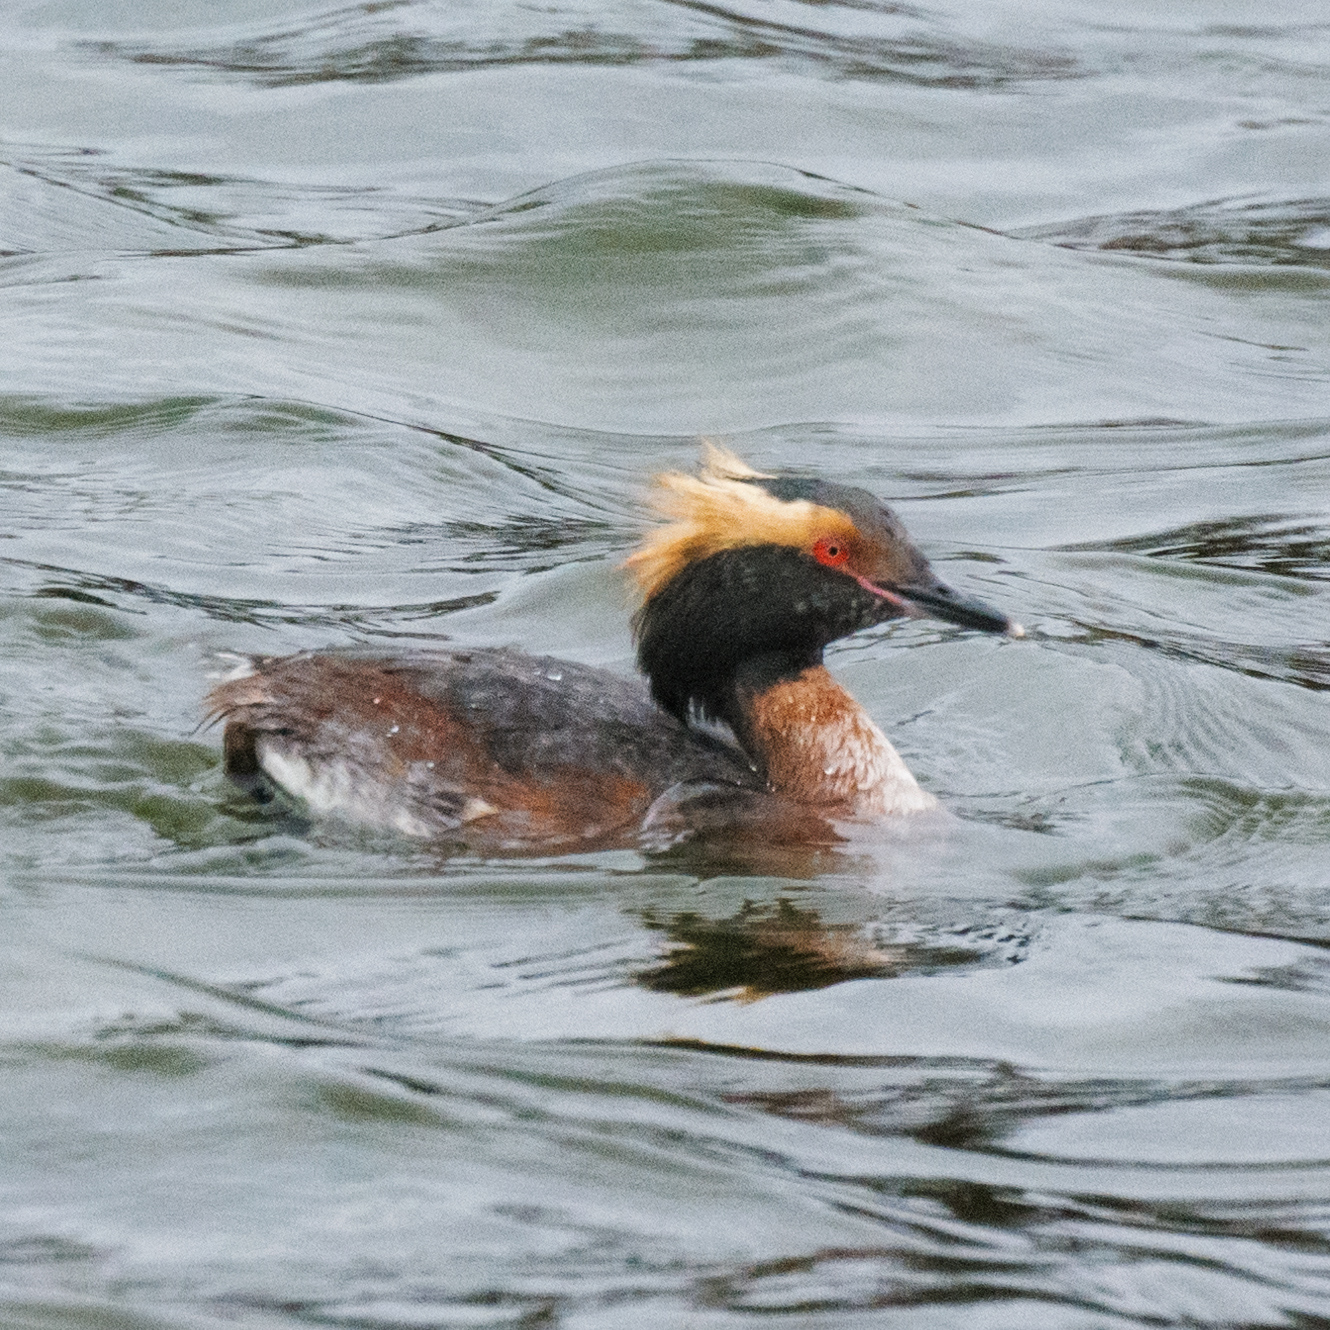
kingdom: Animalia
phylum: Chordata
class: Aves
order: Podicipediformes
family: Podicipedidae
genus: Podiceps
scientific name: Podiceps auritus
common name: Horned grebe
